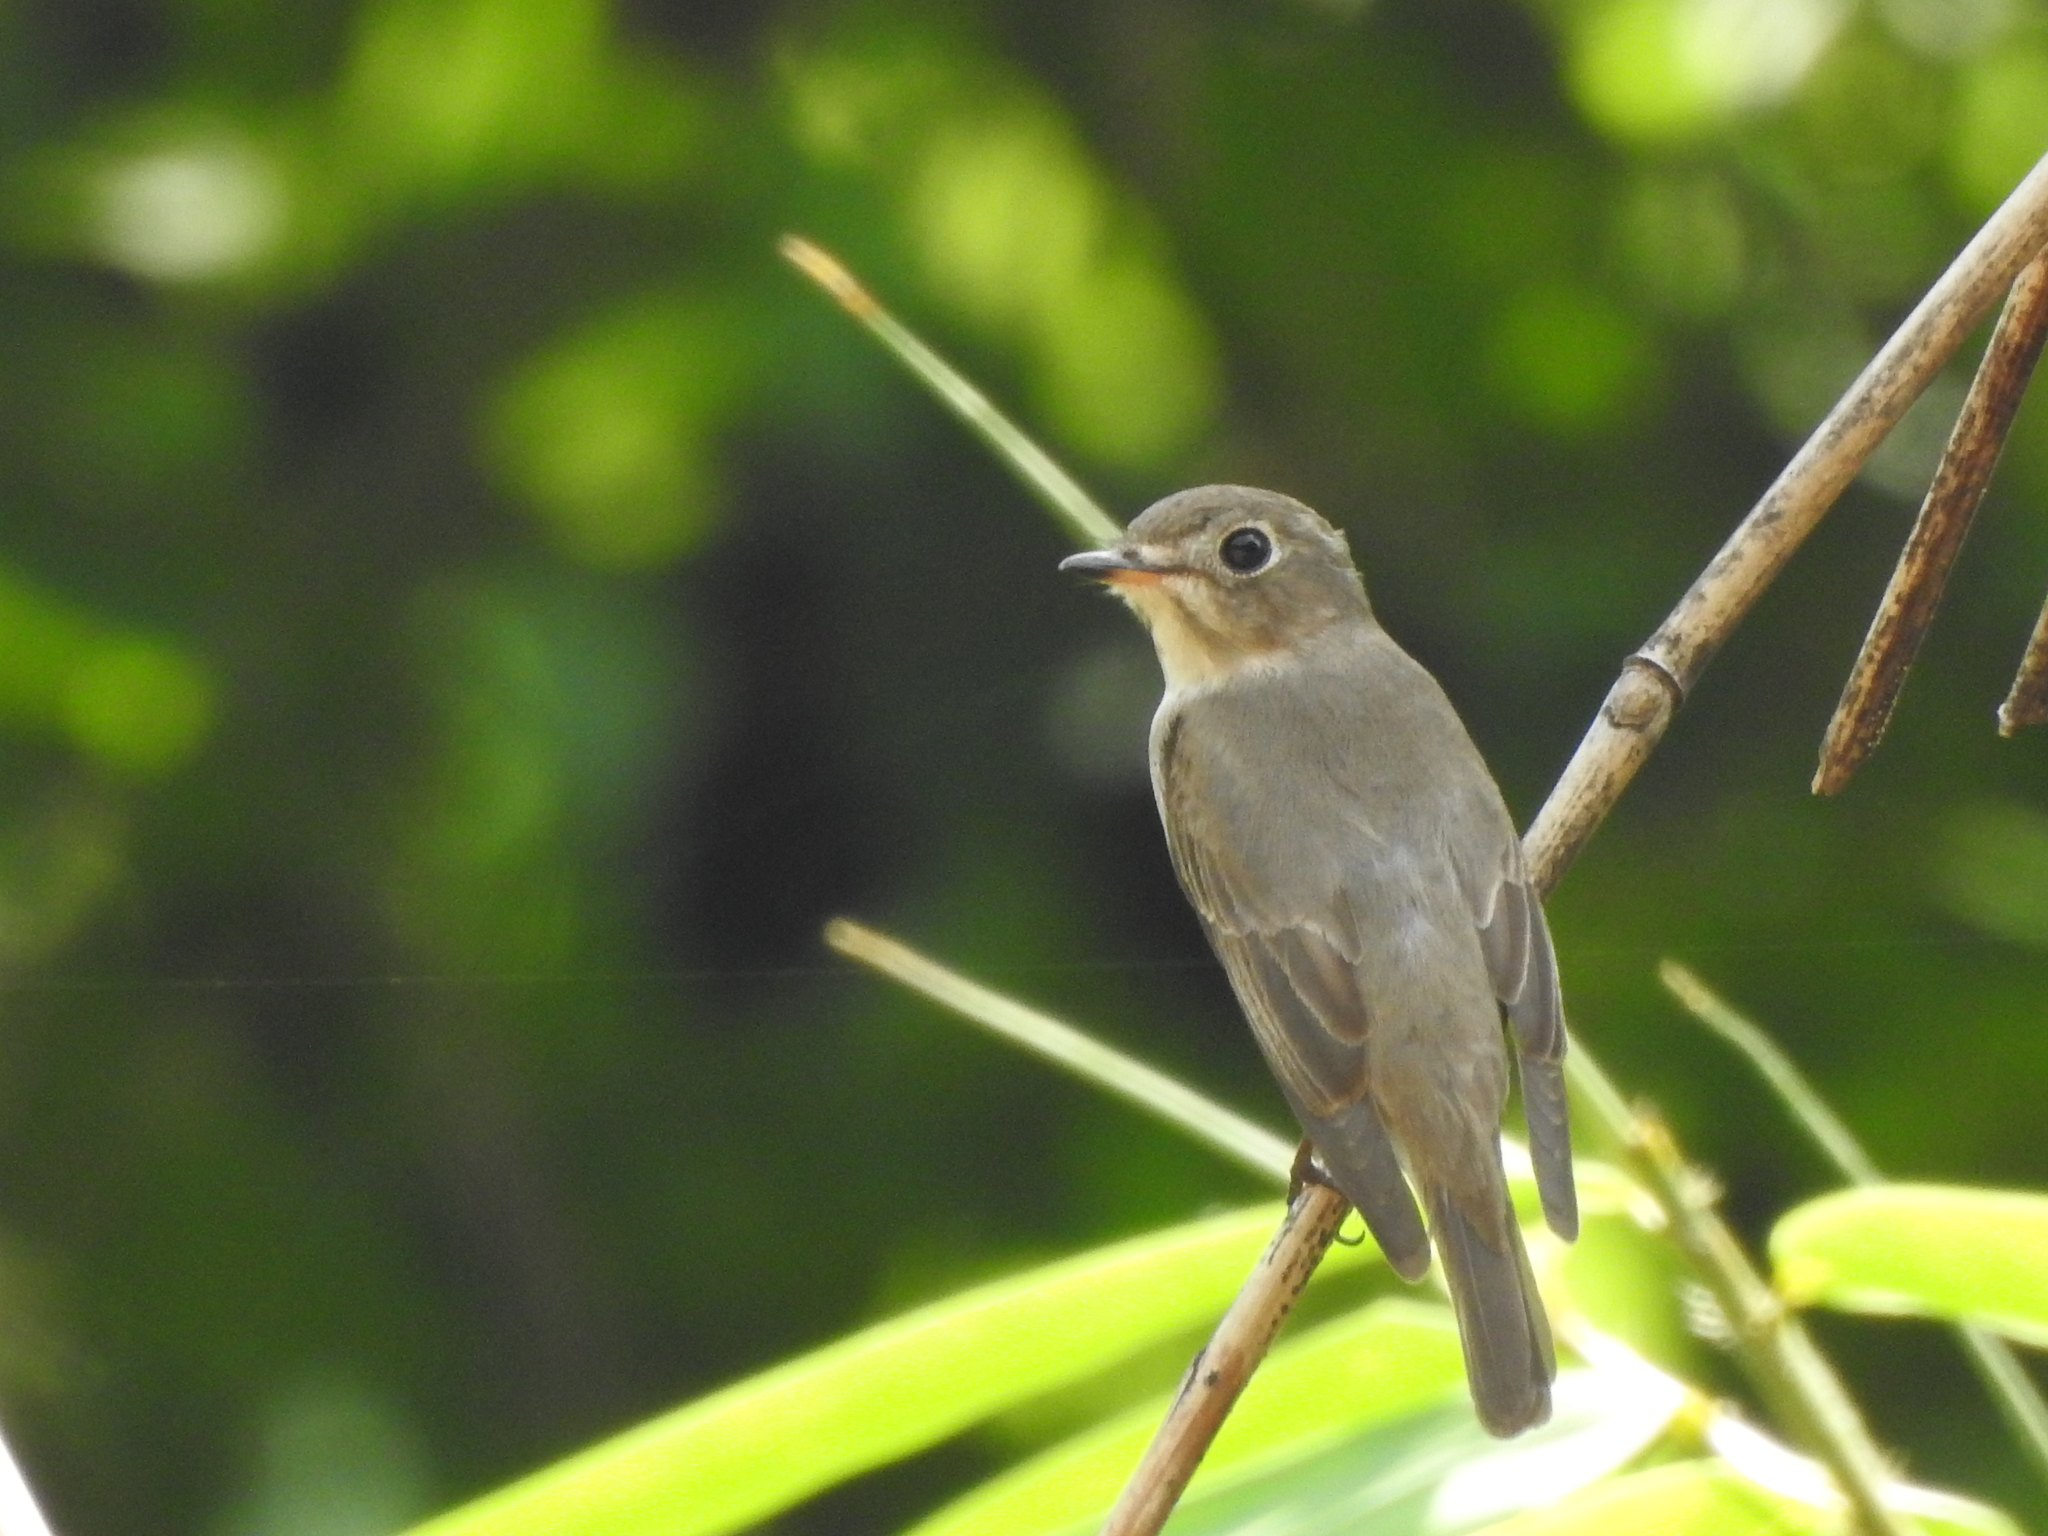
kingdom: Animalia
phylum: Chordata
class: Aves
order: Passeriformes
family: Muscicapidae
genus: Muscicapa
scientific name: Muscicapa latirostris
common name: Asian brown flycatcher
